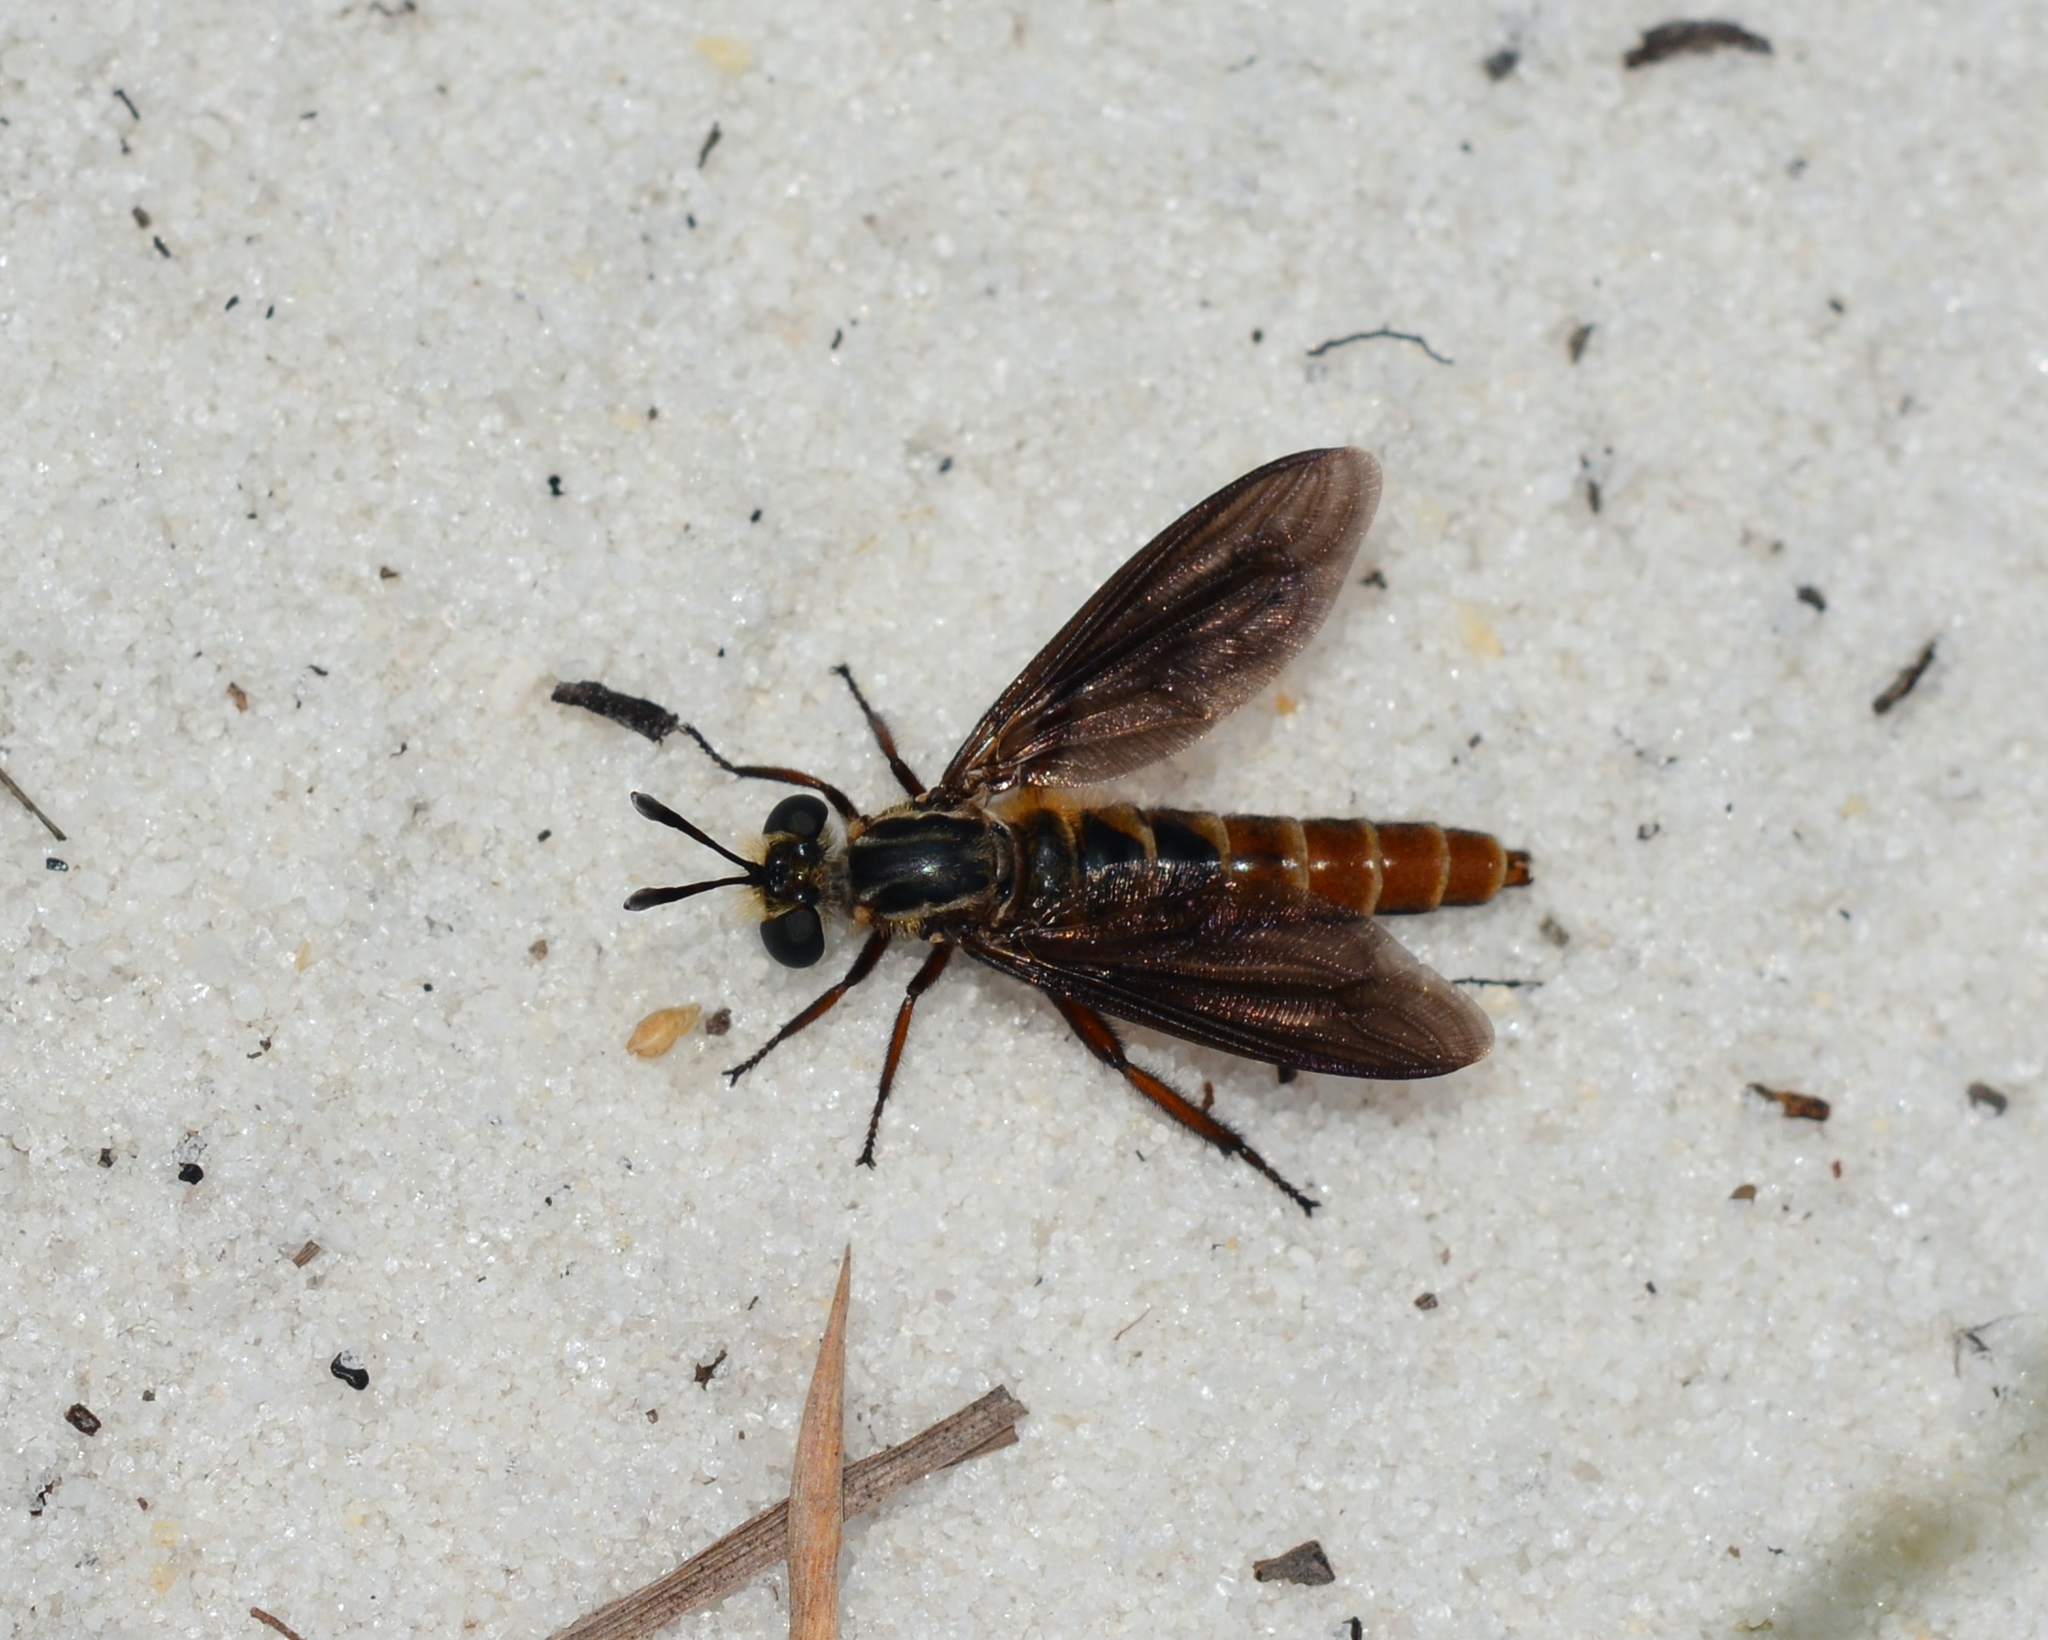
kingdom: Animalia
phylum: Arthropoda
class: Insecta
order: Diptera
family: Mydidae
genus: Nemomydas
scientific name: Nemomydas jonesii
